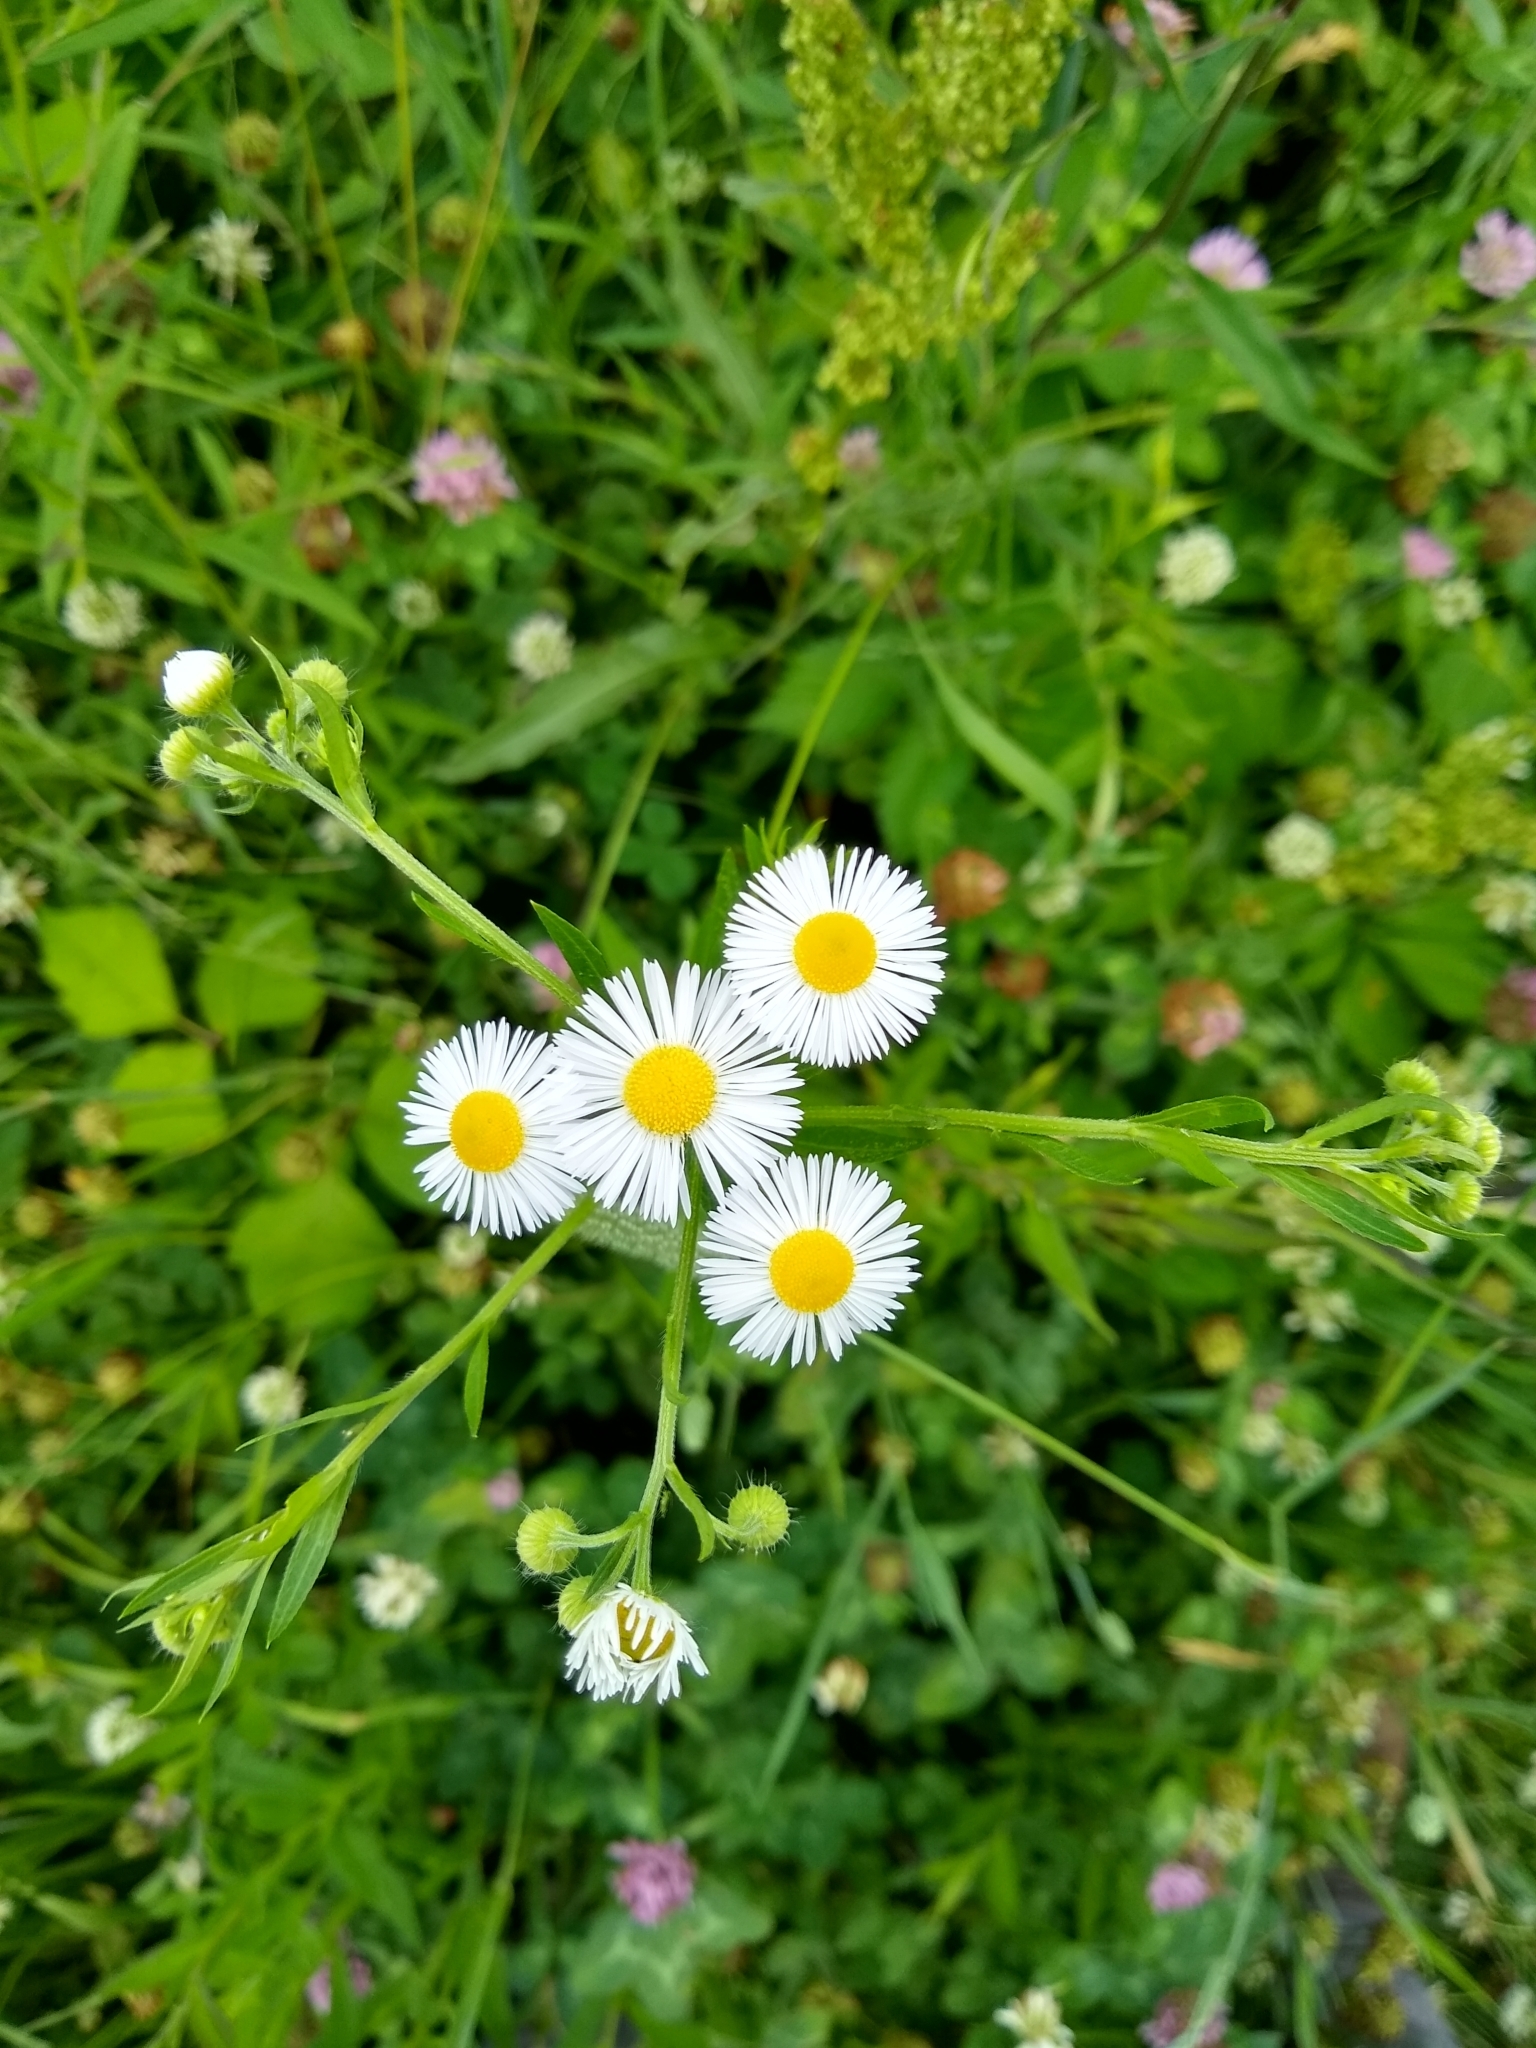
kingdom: Plantae
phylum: Tracheophyta
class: Magnoliopsida
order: Asterales
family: Asteraceae
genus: Erigeron
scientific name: Erigeron strigosus
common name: Common eastern fleabane
